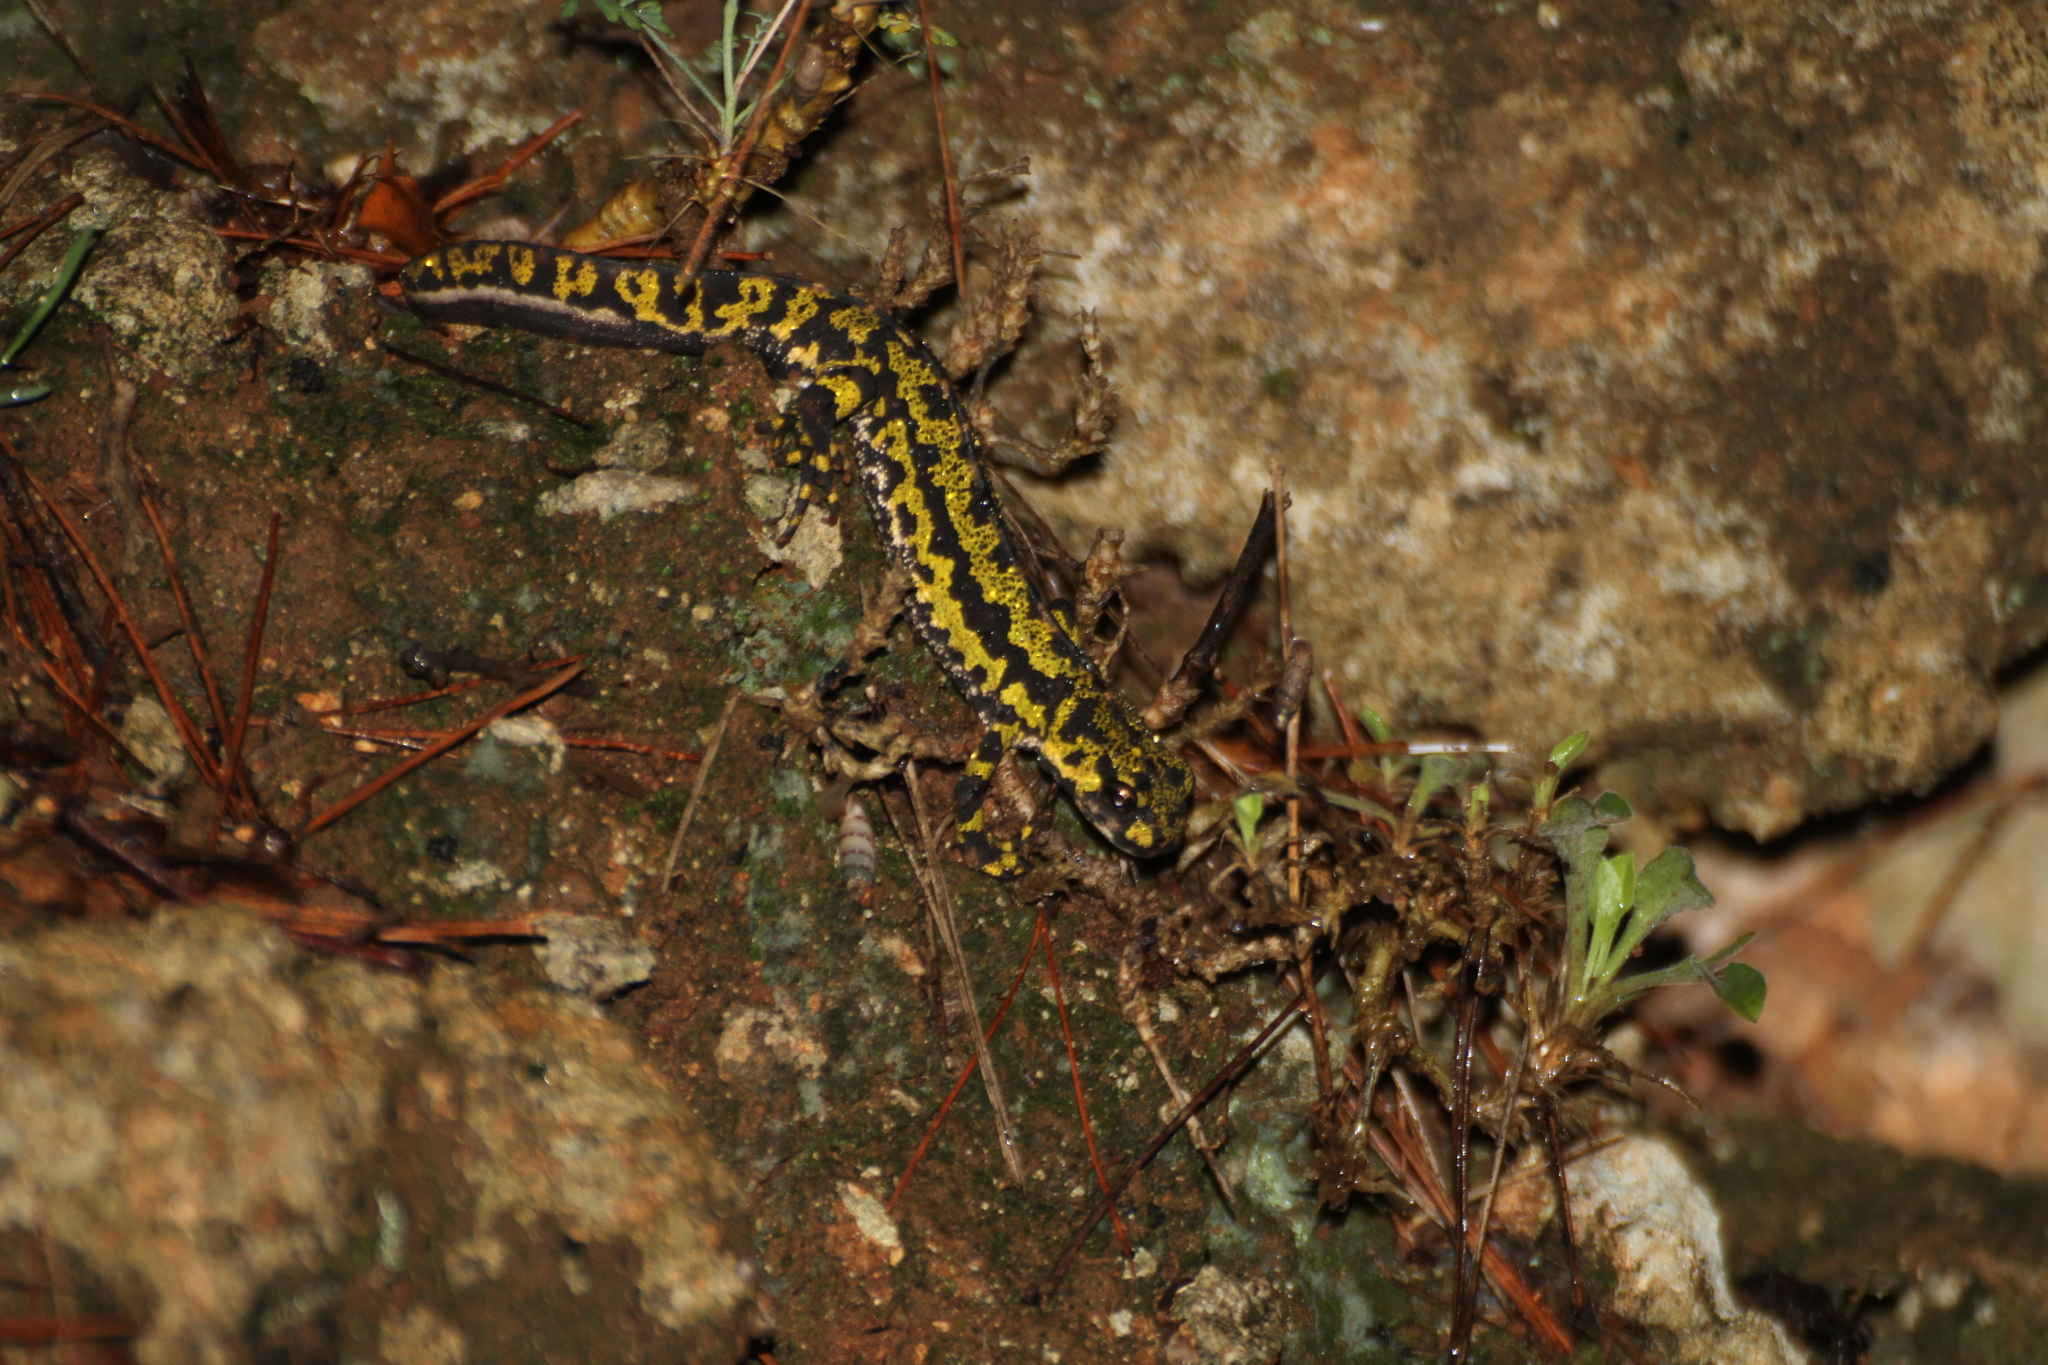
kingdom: Animalia
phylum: Chordata
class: Amphibia
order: Caudata
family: Salamandridae
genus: Triturus
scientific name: Triturus marmoratus
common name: Marbled newt
